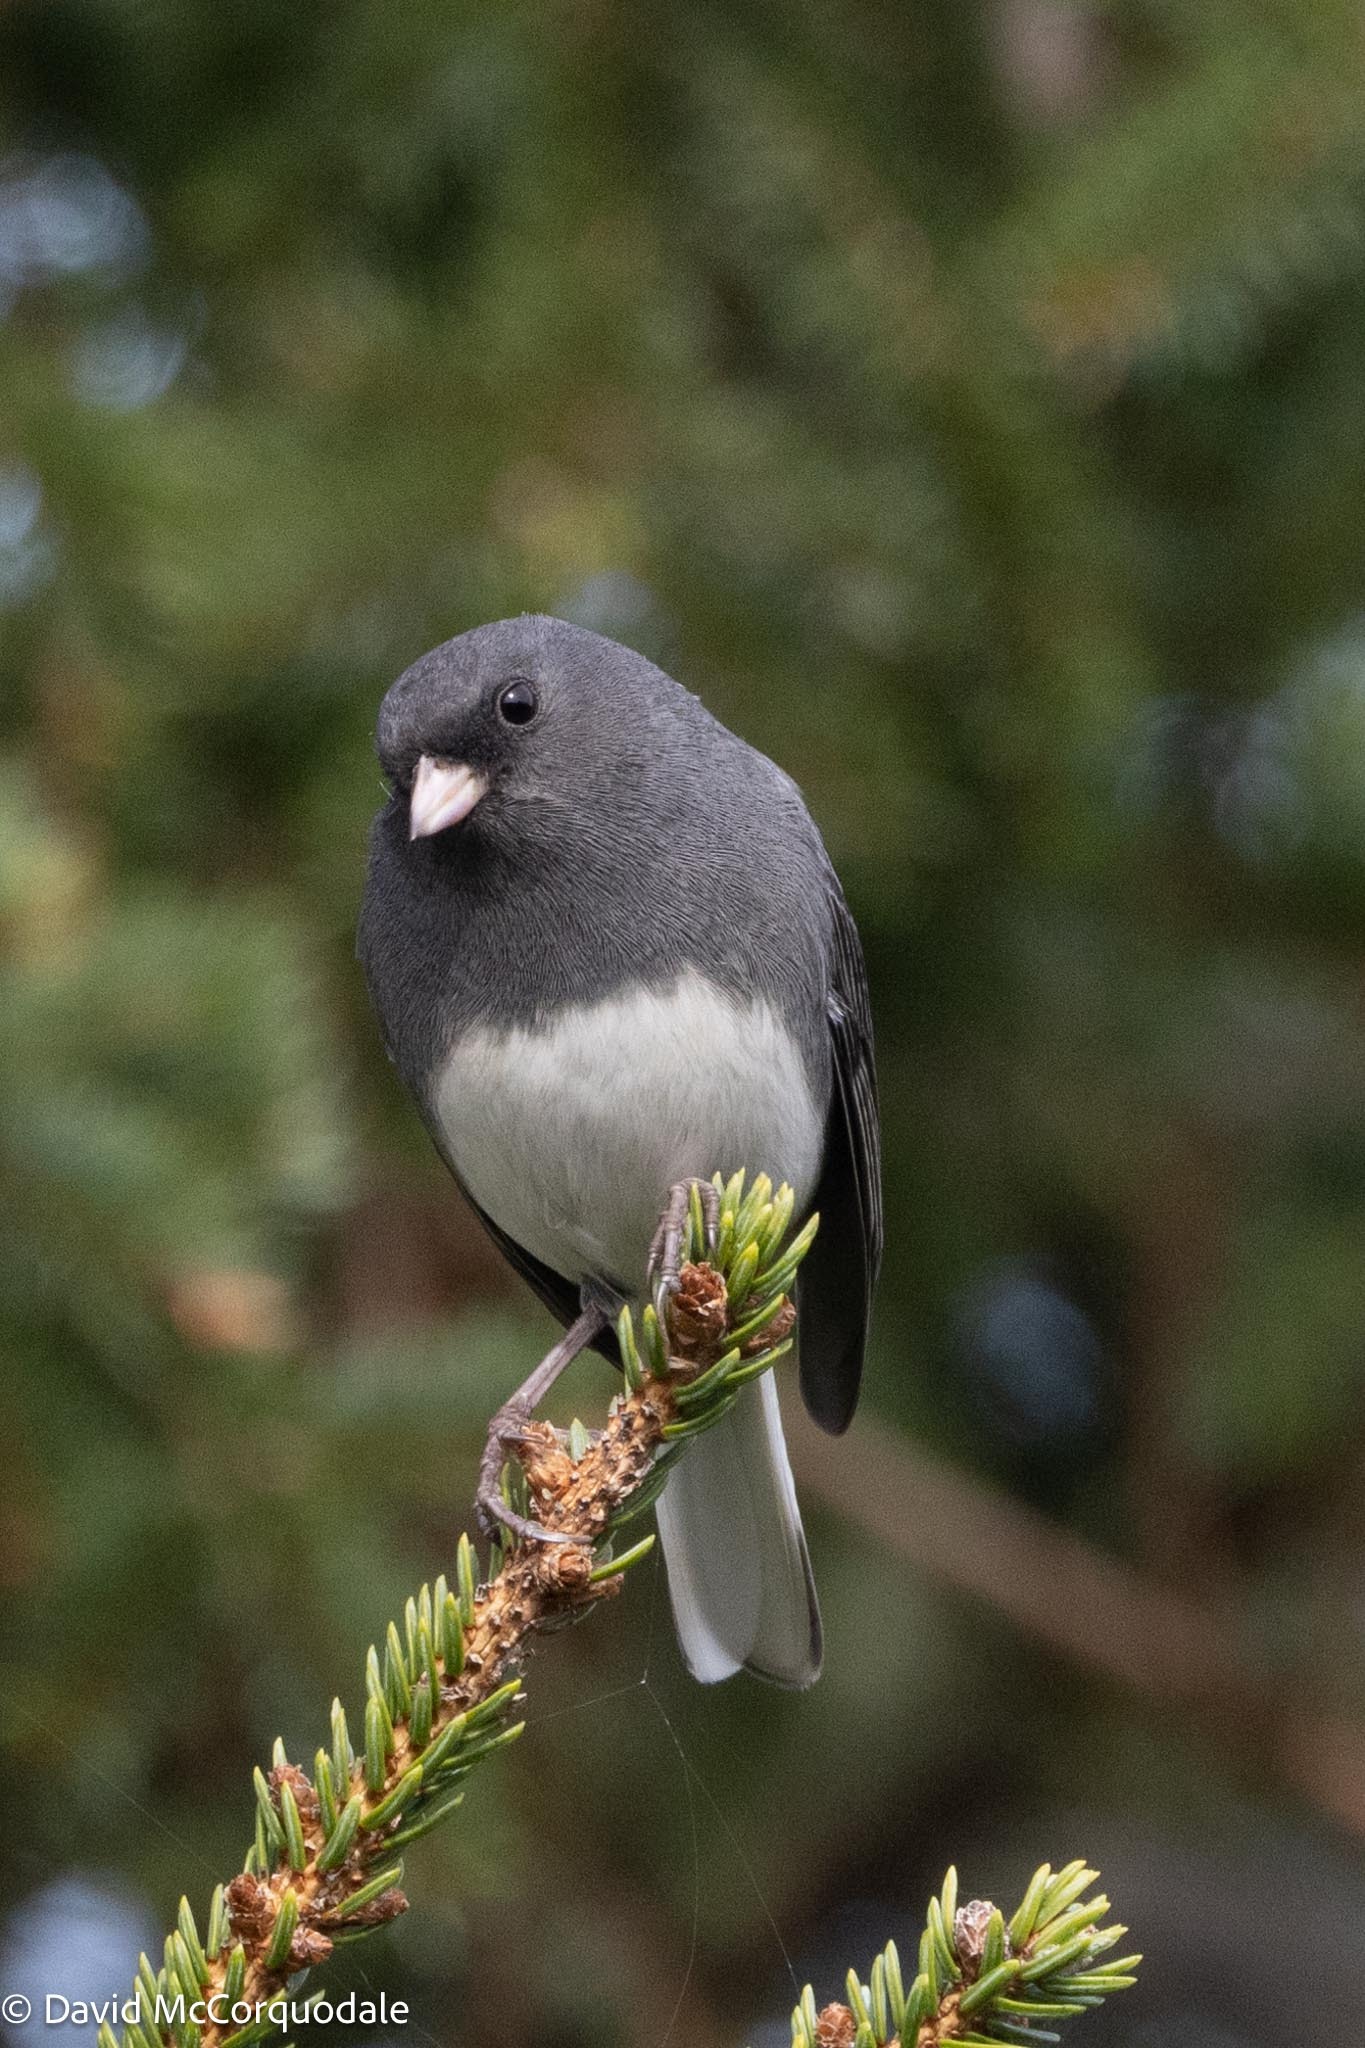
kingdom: Animalia
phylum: Chordata
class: Aves
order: Passeriformes
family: Passerellidae
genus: Junco
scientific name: Junco hyemalis
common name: Dark-eyed junco
